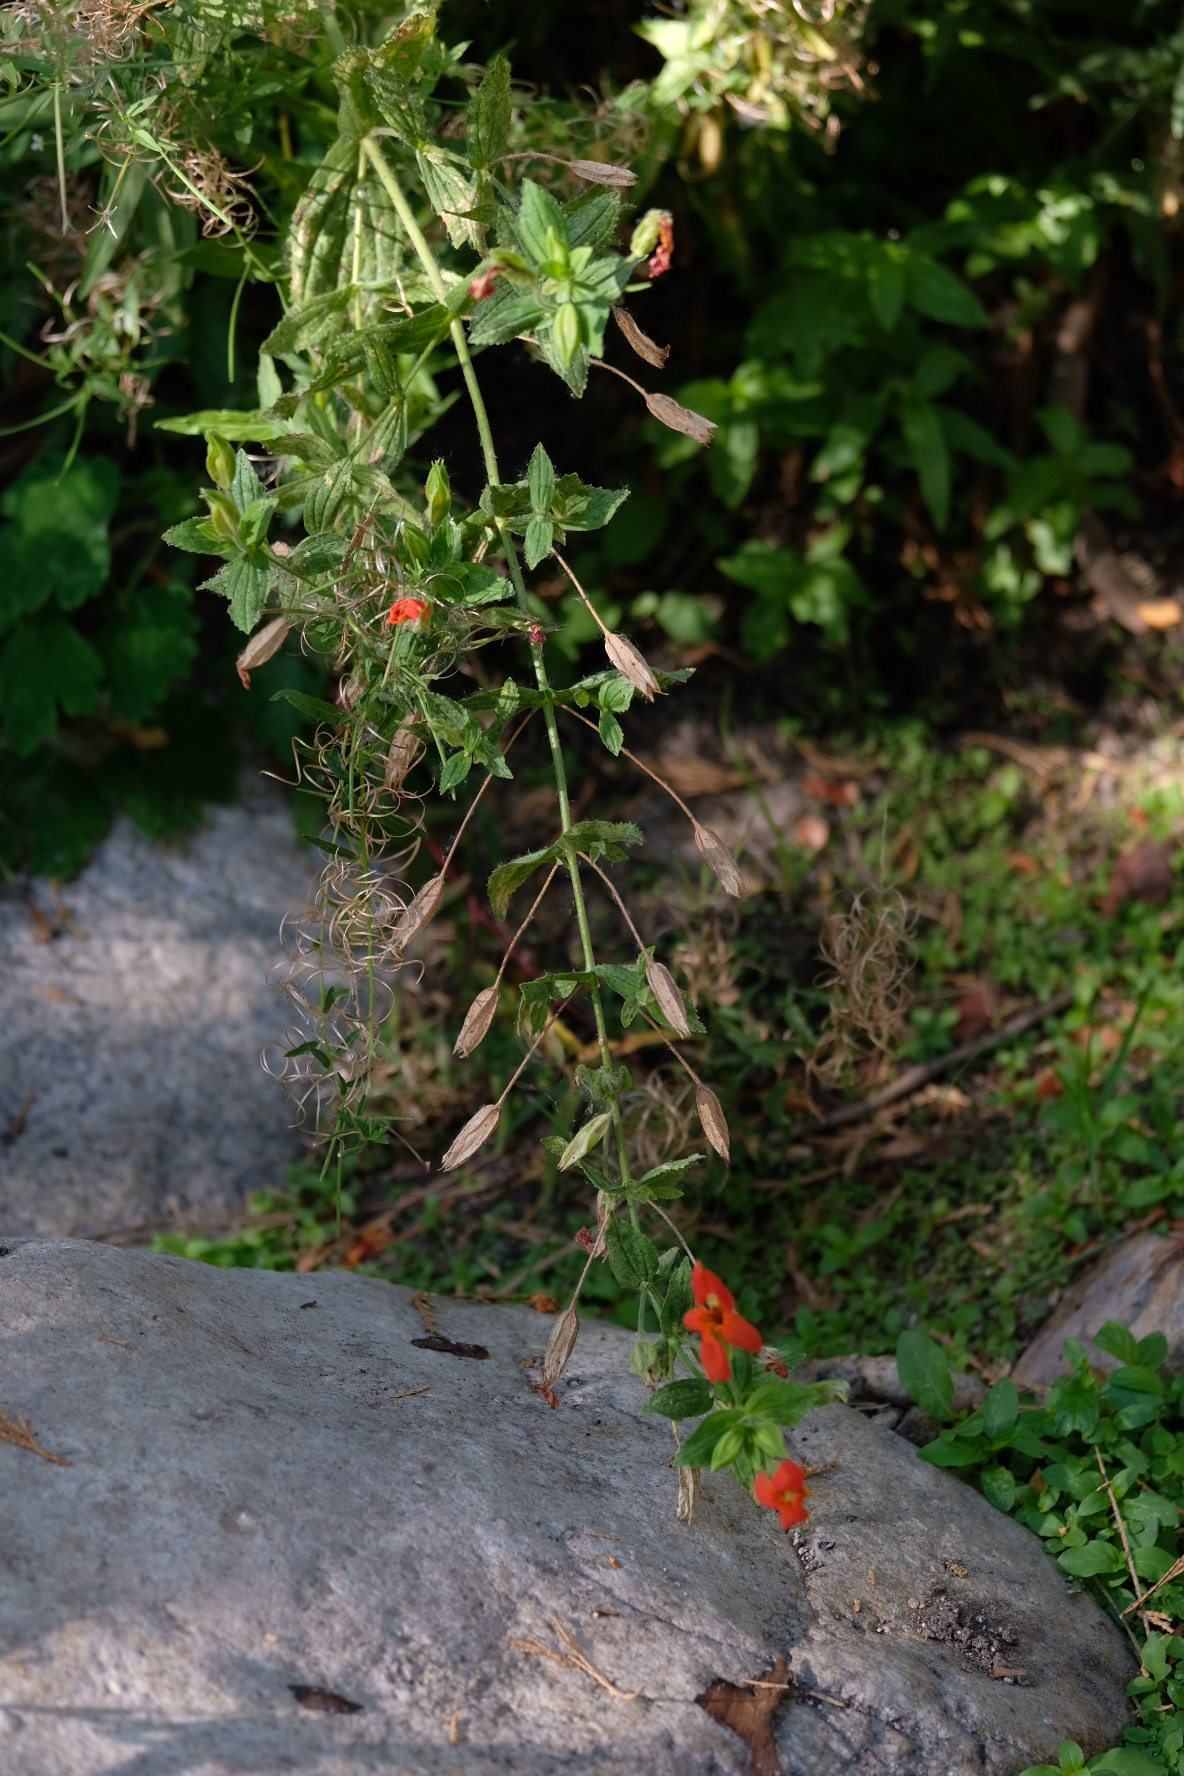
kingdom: Plantae
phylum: Tracheophyta
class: Magnoliopsida
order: Lamiales
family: Phrymaceae
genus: Erythranthe
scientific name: Erythranthe cardinalis
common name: Scarlet monkey-flower
